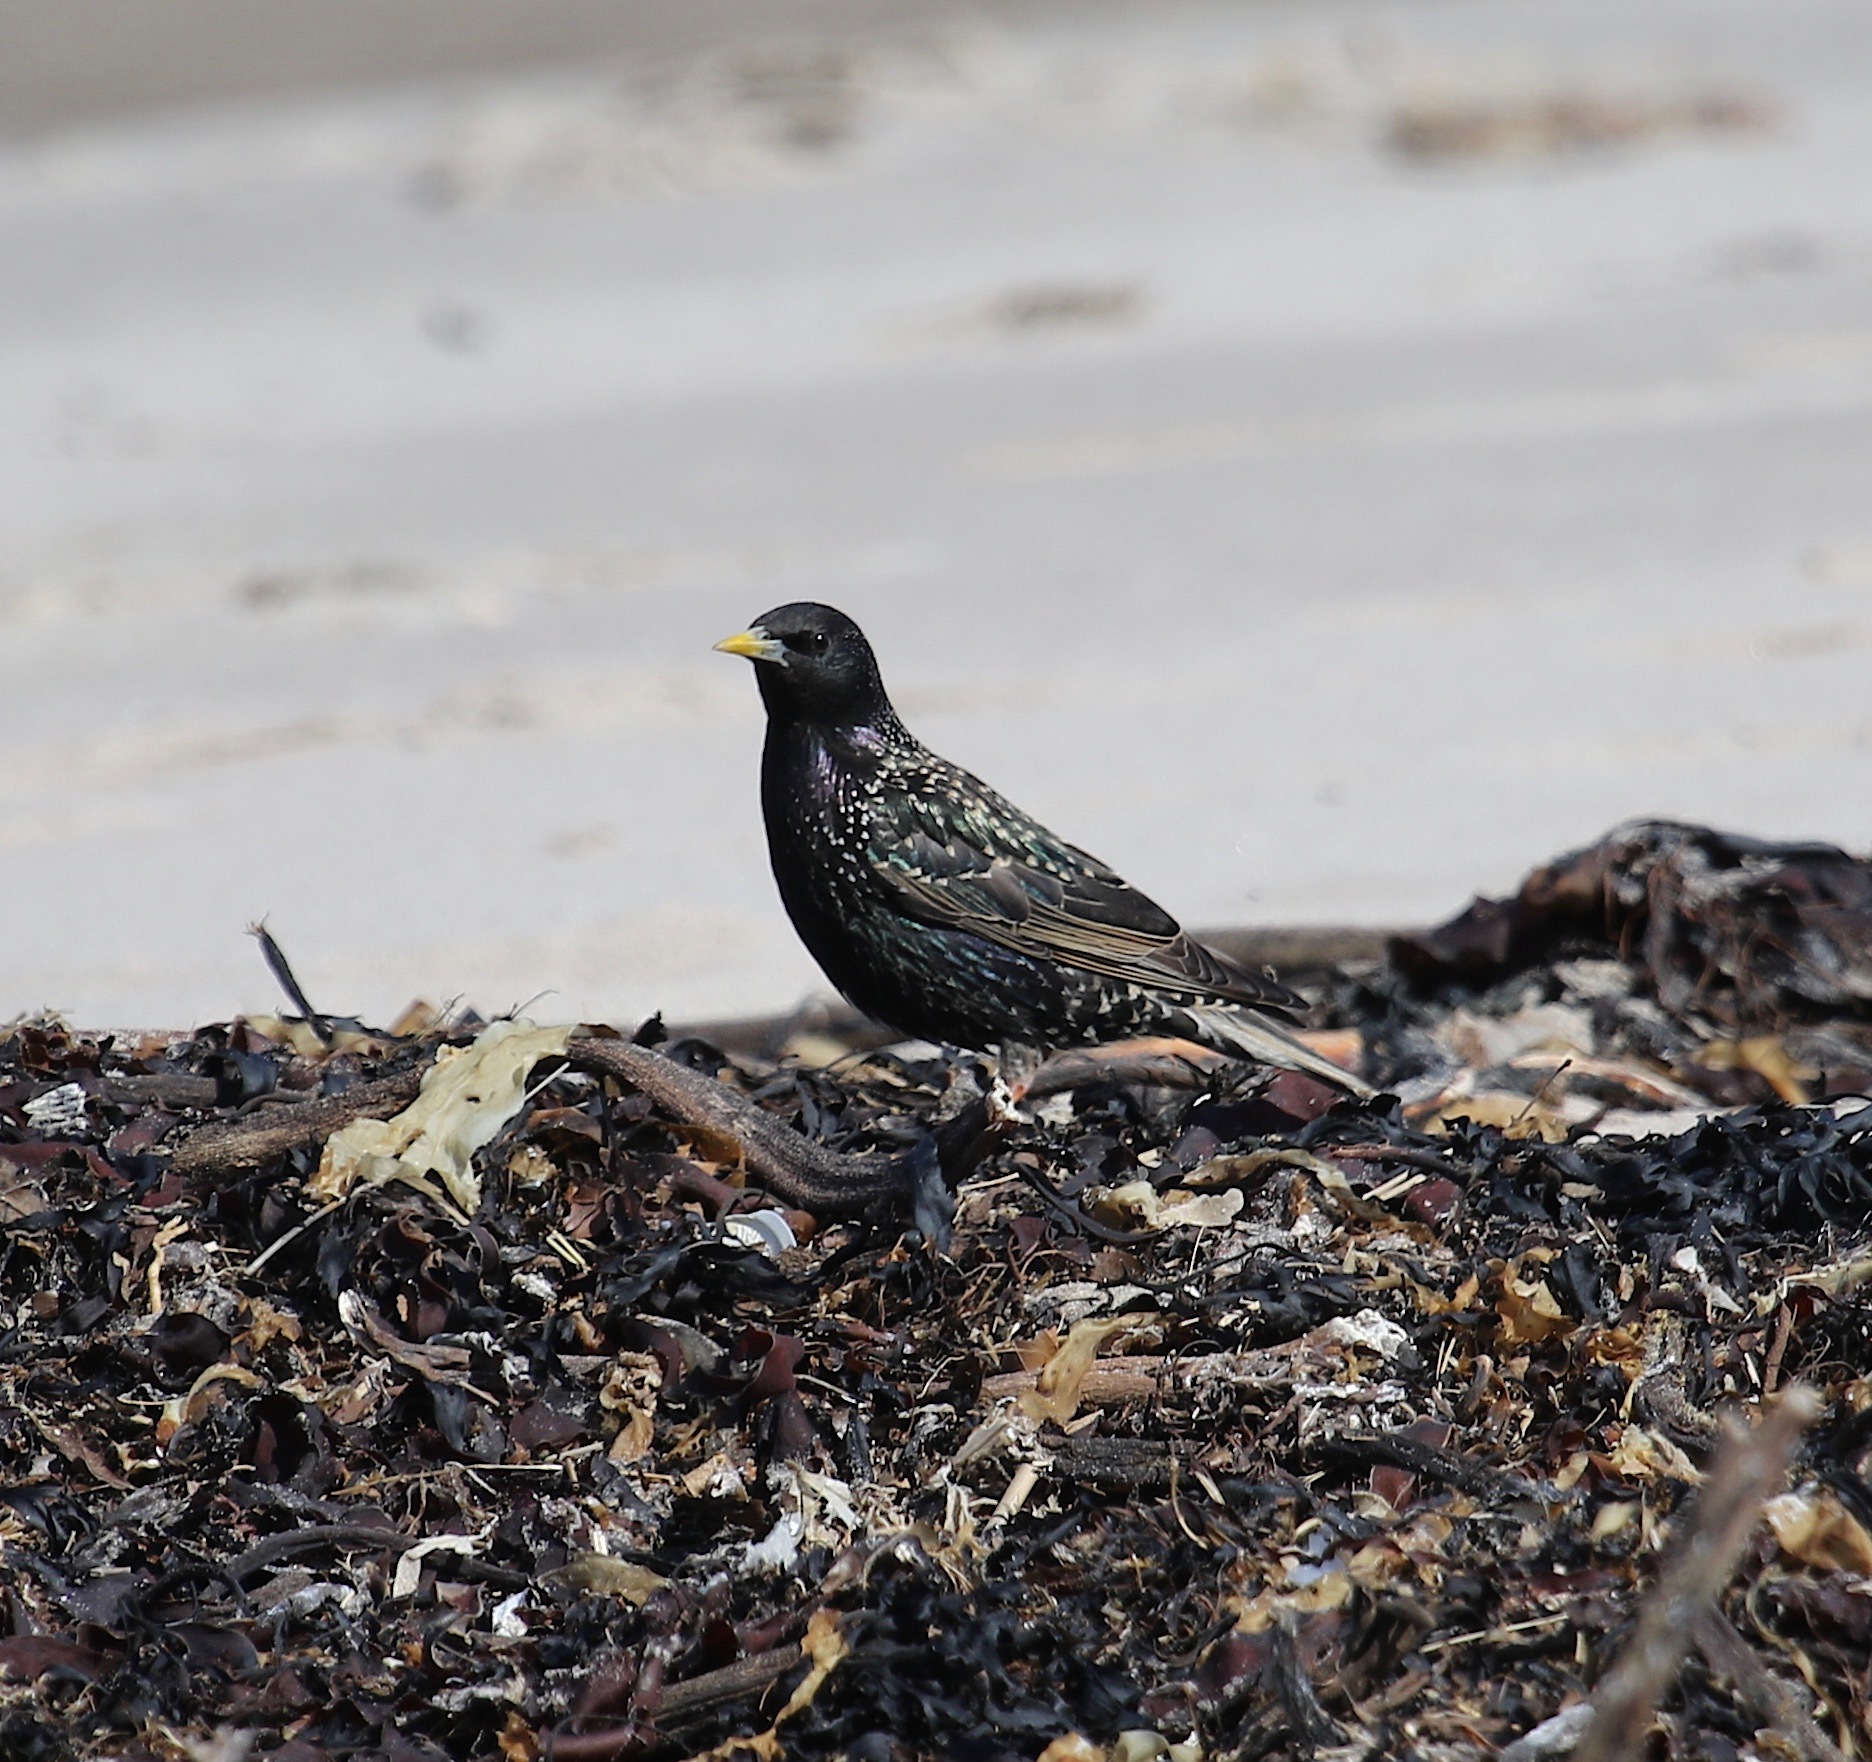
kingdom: Animalia
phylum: Chordata
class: Aves
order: Passeriformes
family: Sturnidae
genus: Sturnus
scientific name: Sturnus vulgaris
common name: Common starling
